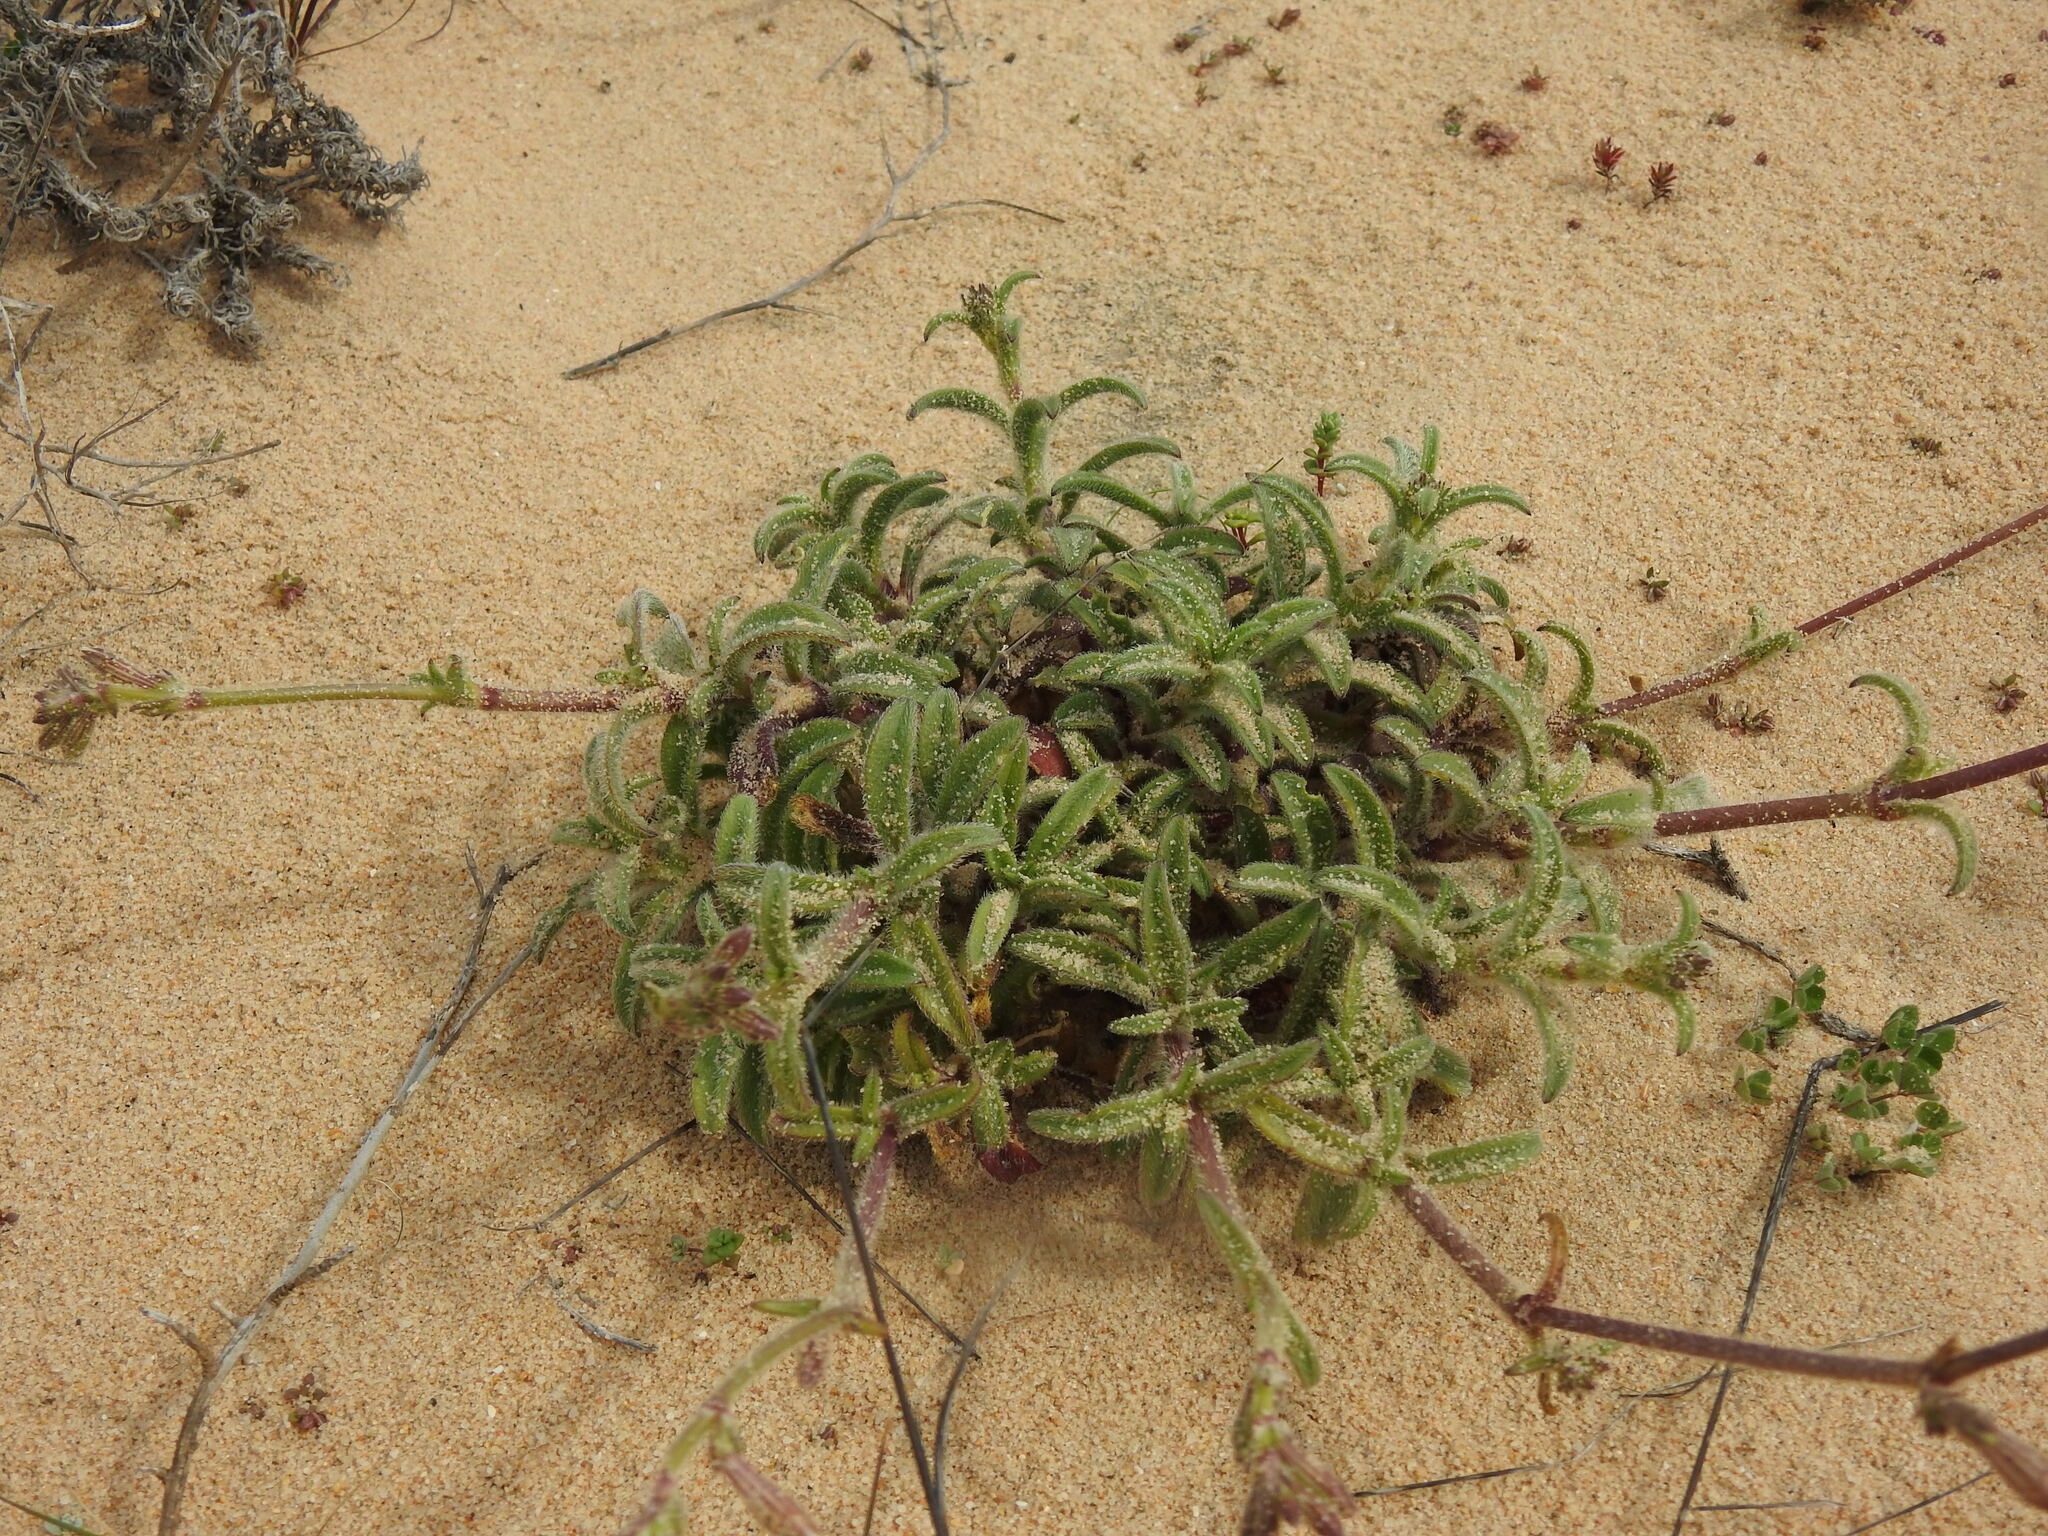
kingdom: Plantae
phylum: Tracheophyta
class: Magnoliopsida
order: Caryophyllales
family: Caryophyllaceae
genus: Silene
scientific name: Silene nicaeensis
